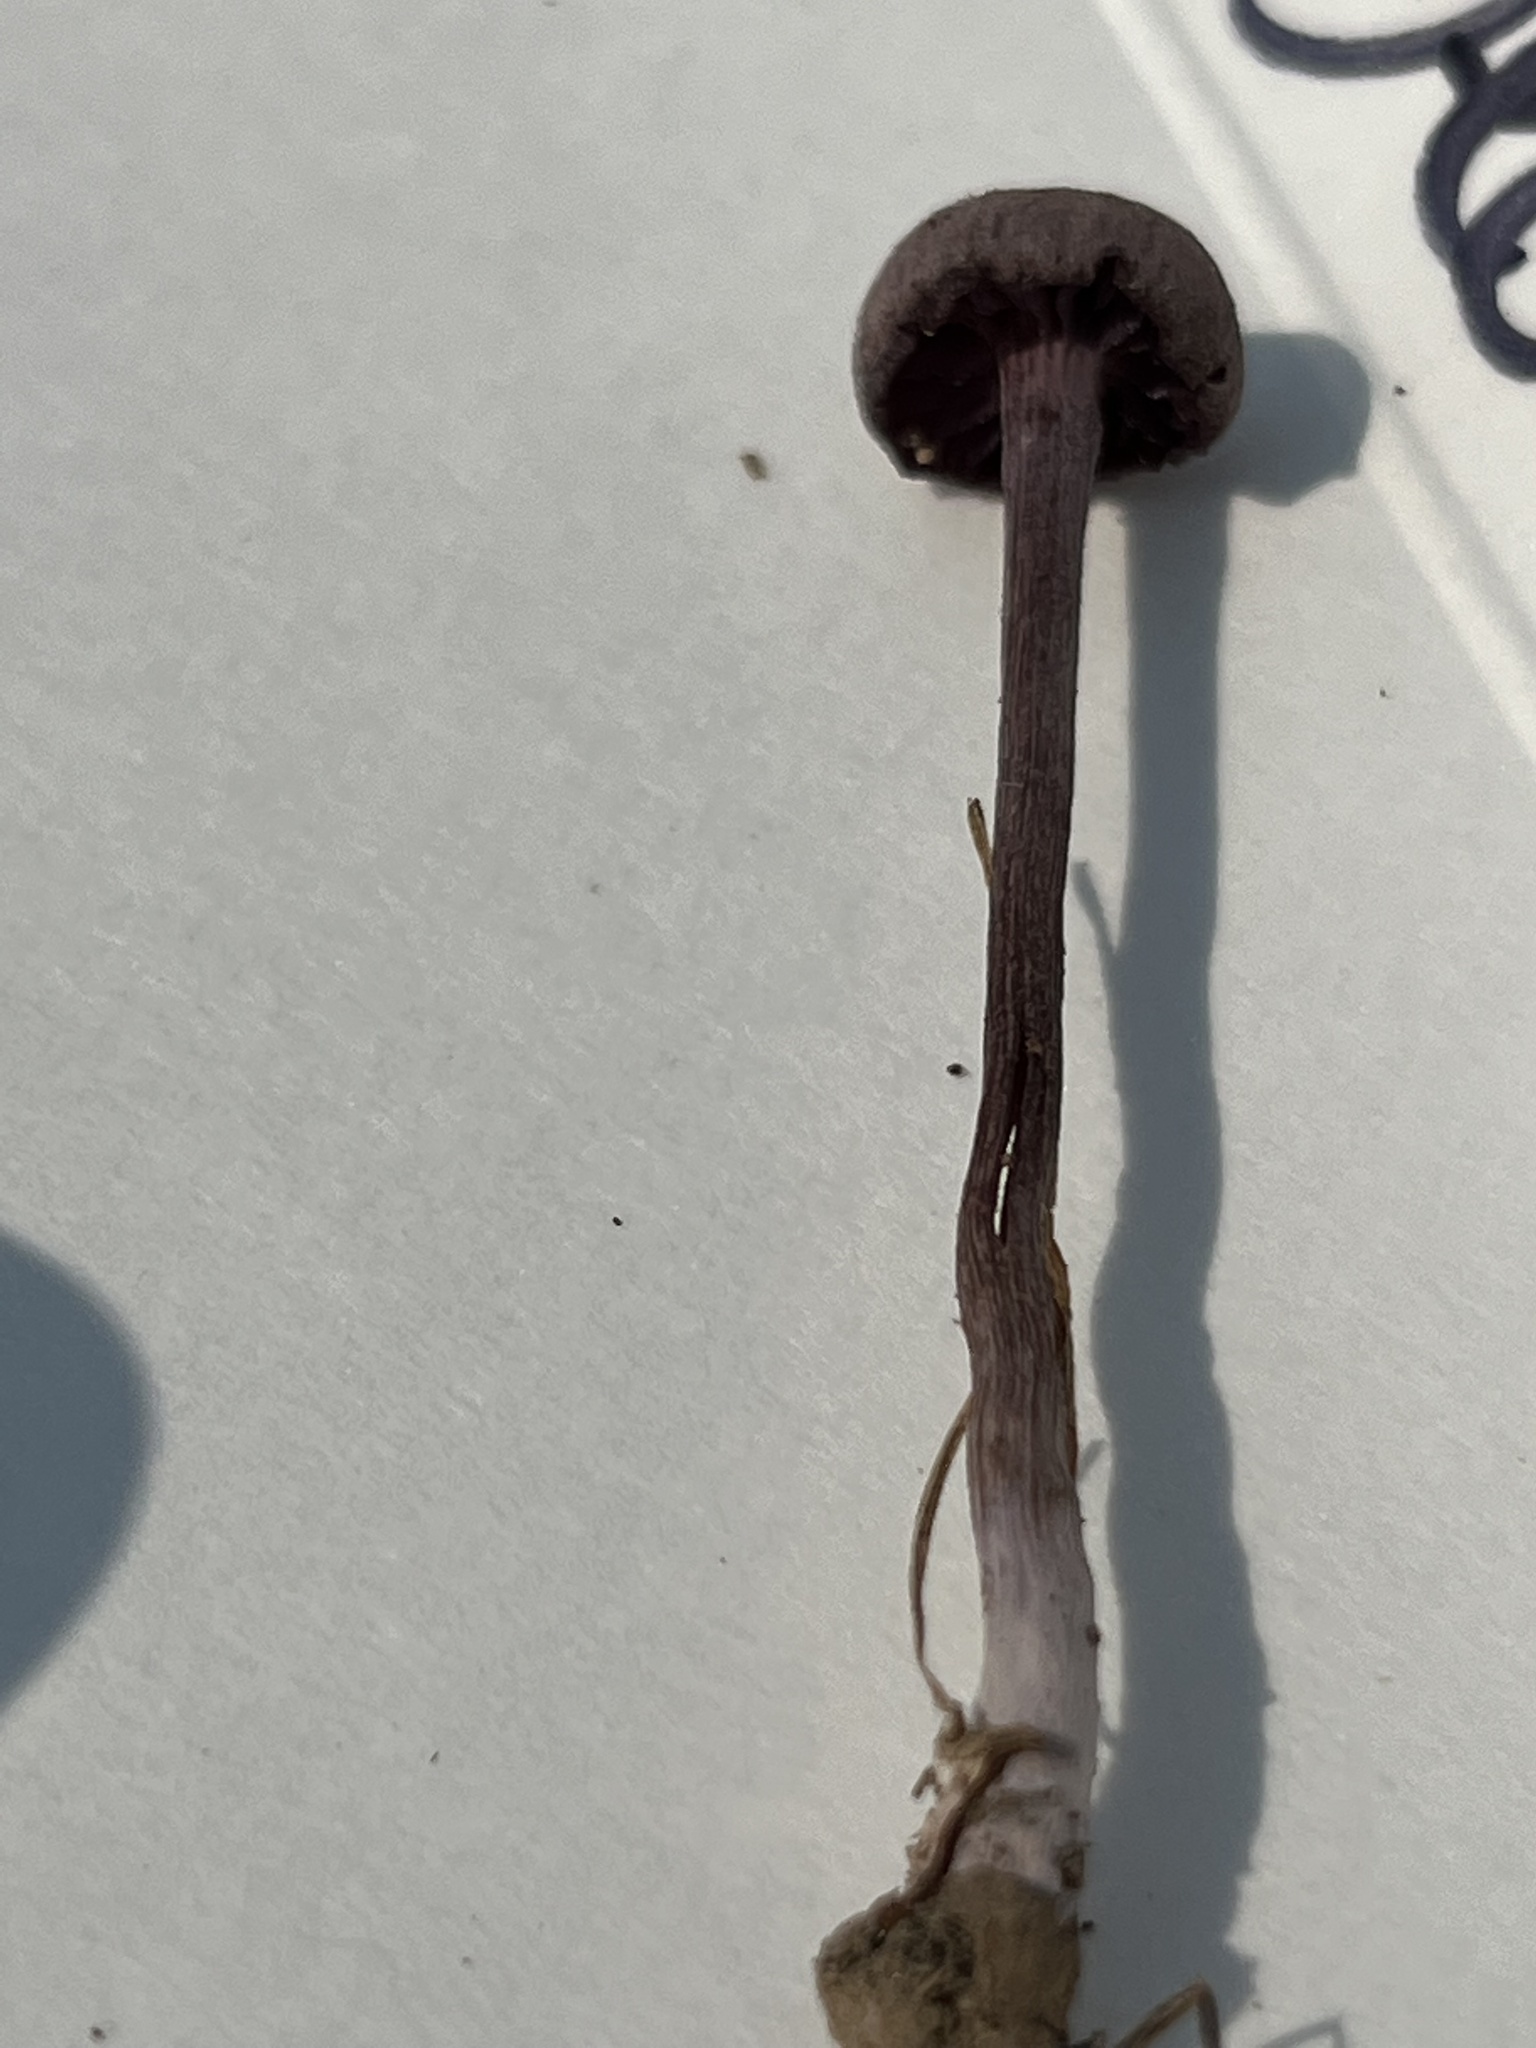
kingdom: Fungi
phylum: Basidiomycota
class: Agaricomycetes
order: Agaricales
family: Hydnangiaceae
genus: Laccaria
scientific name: Laccaria amethystina
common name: Amethyst deceiver
